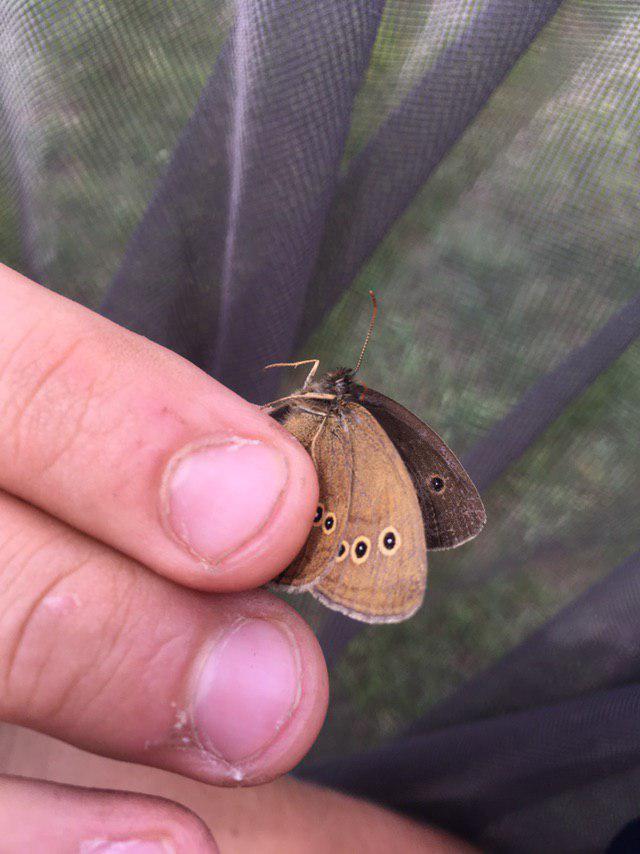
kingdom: Animalia
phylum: Arthropoda
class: Insecta
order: Lepidoptera
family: Nymphalidae
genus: Aphantopus
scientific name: Aphantopus hyperantus
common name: Ringlet
